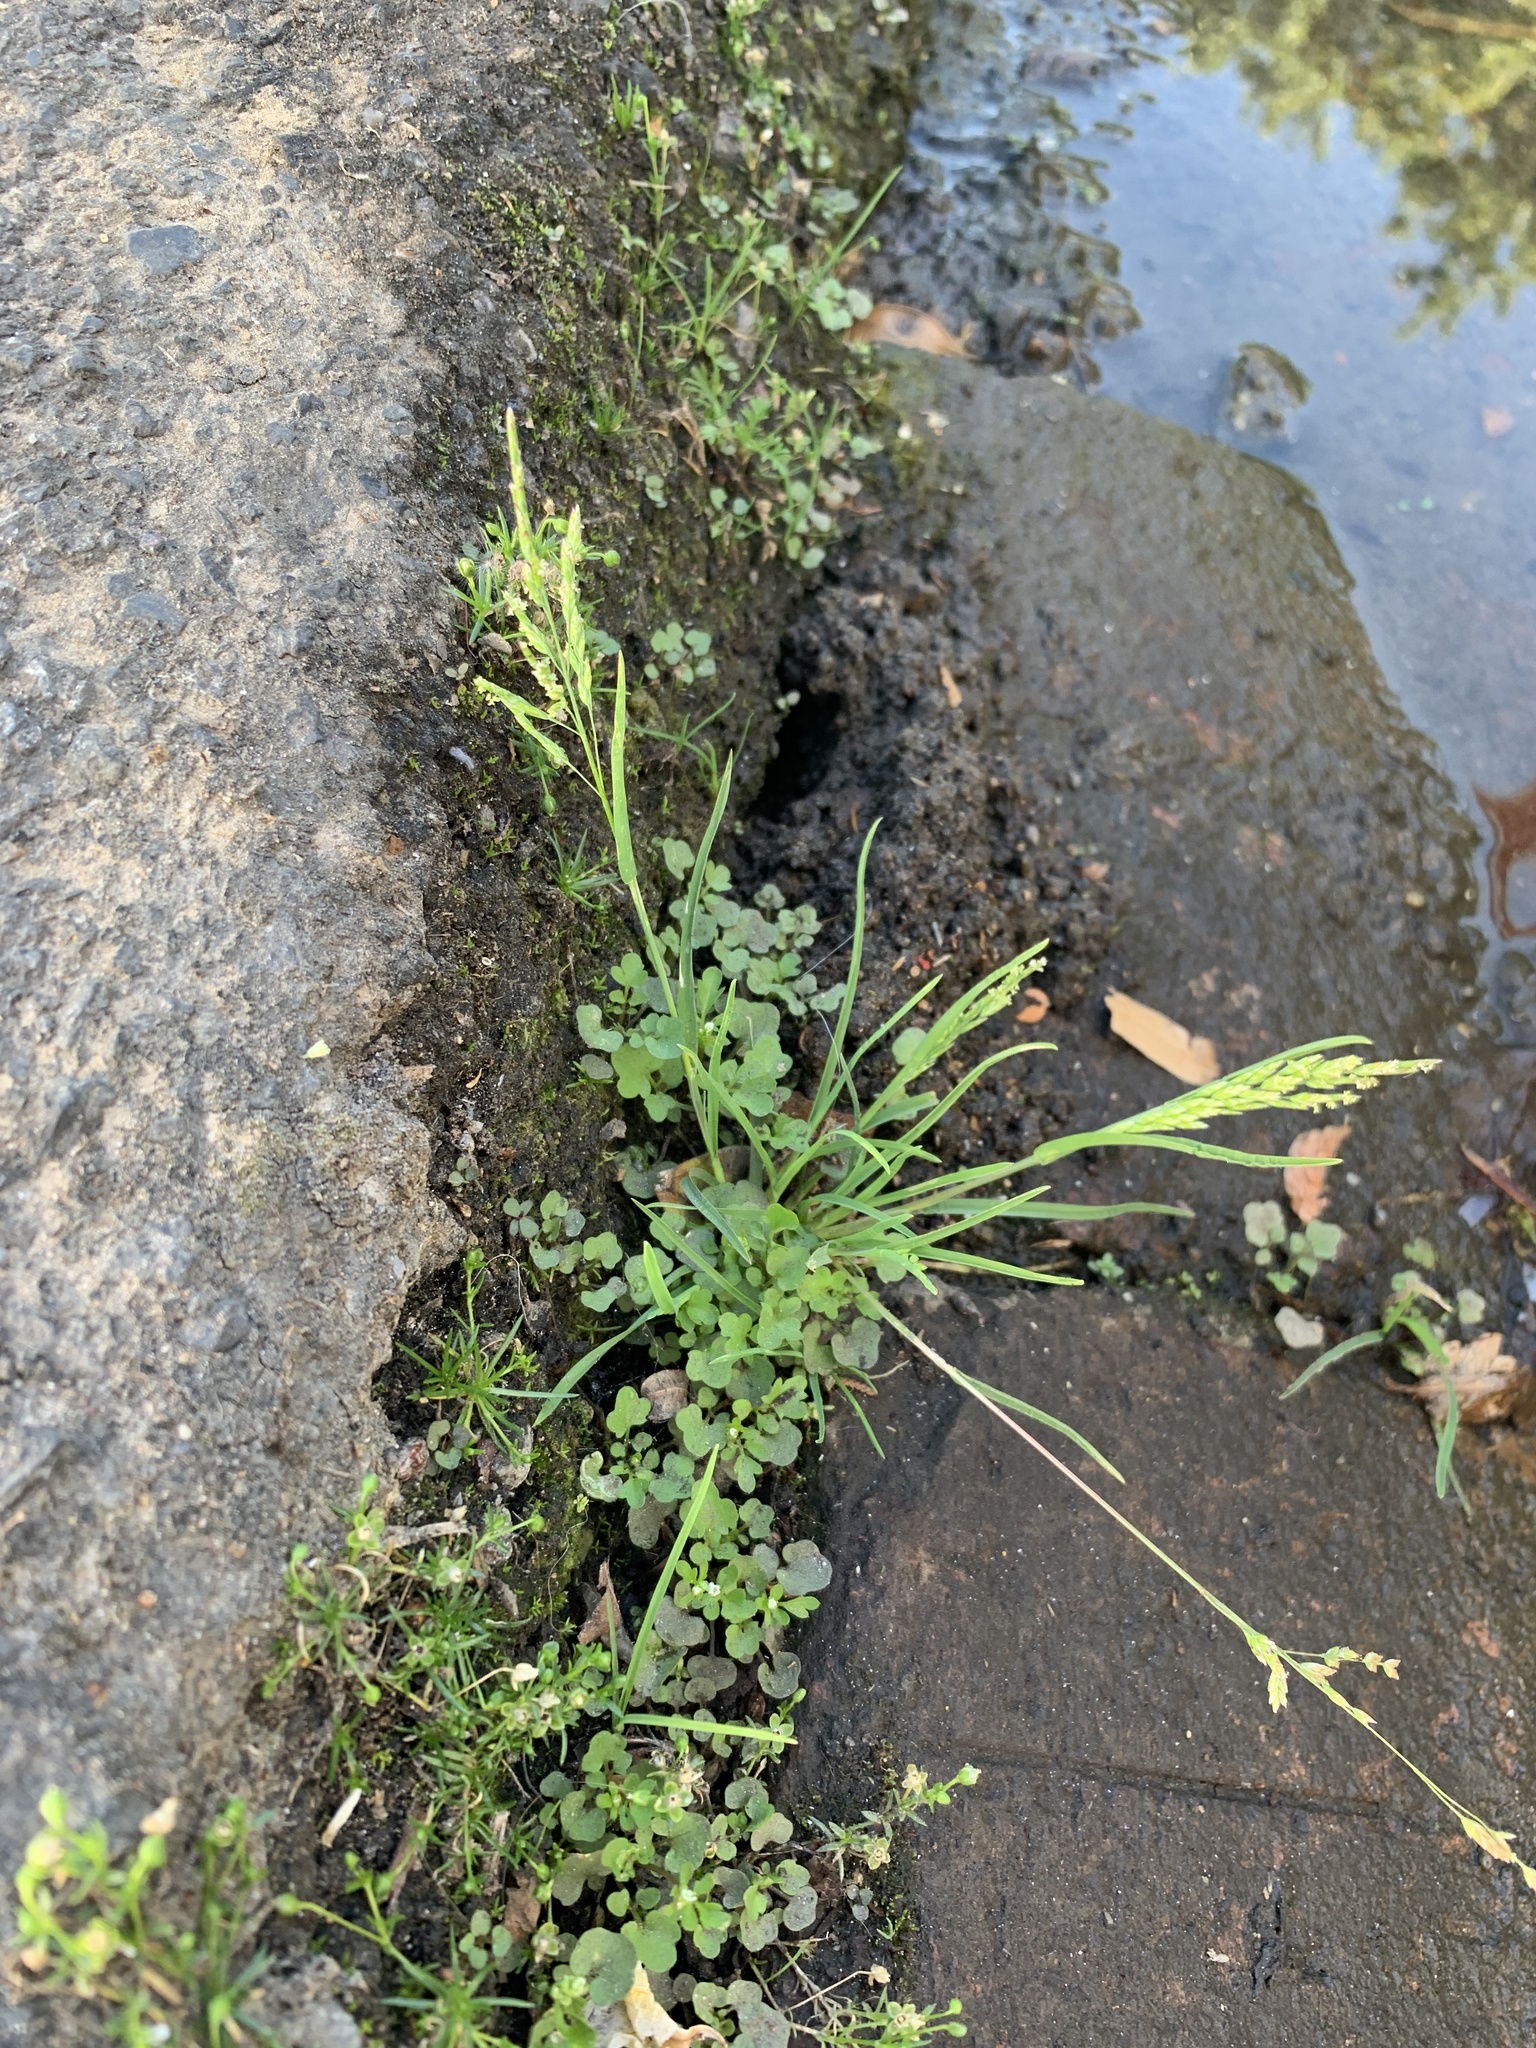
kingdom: Plantae
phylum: Tracheophyta
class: Liliopsida
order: Poales
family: Poaceae
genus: Poa
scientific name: Poa annua
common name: Annual bluegrass
